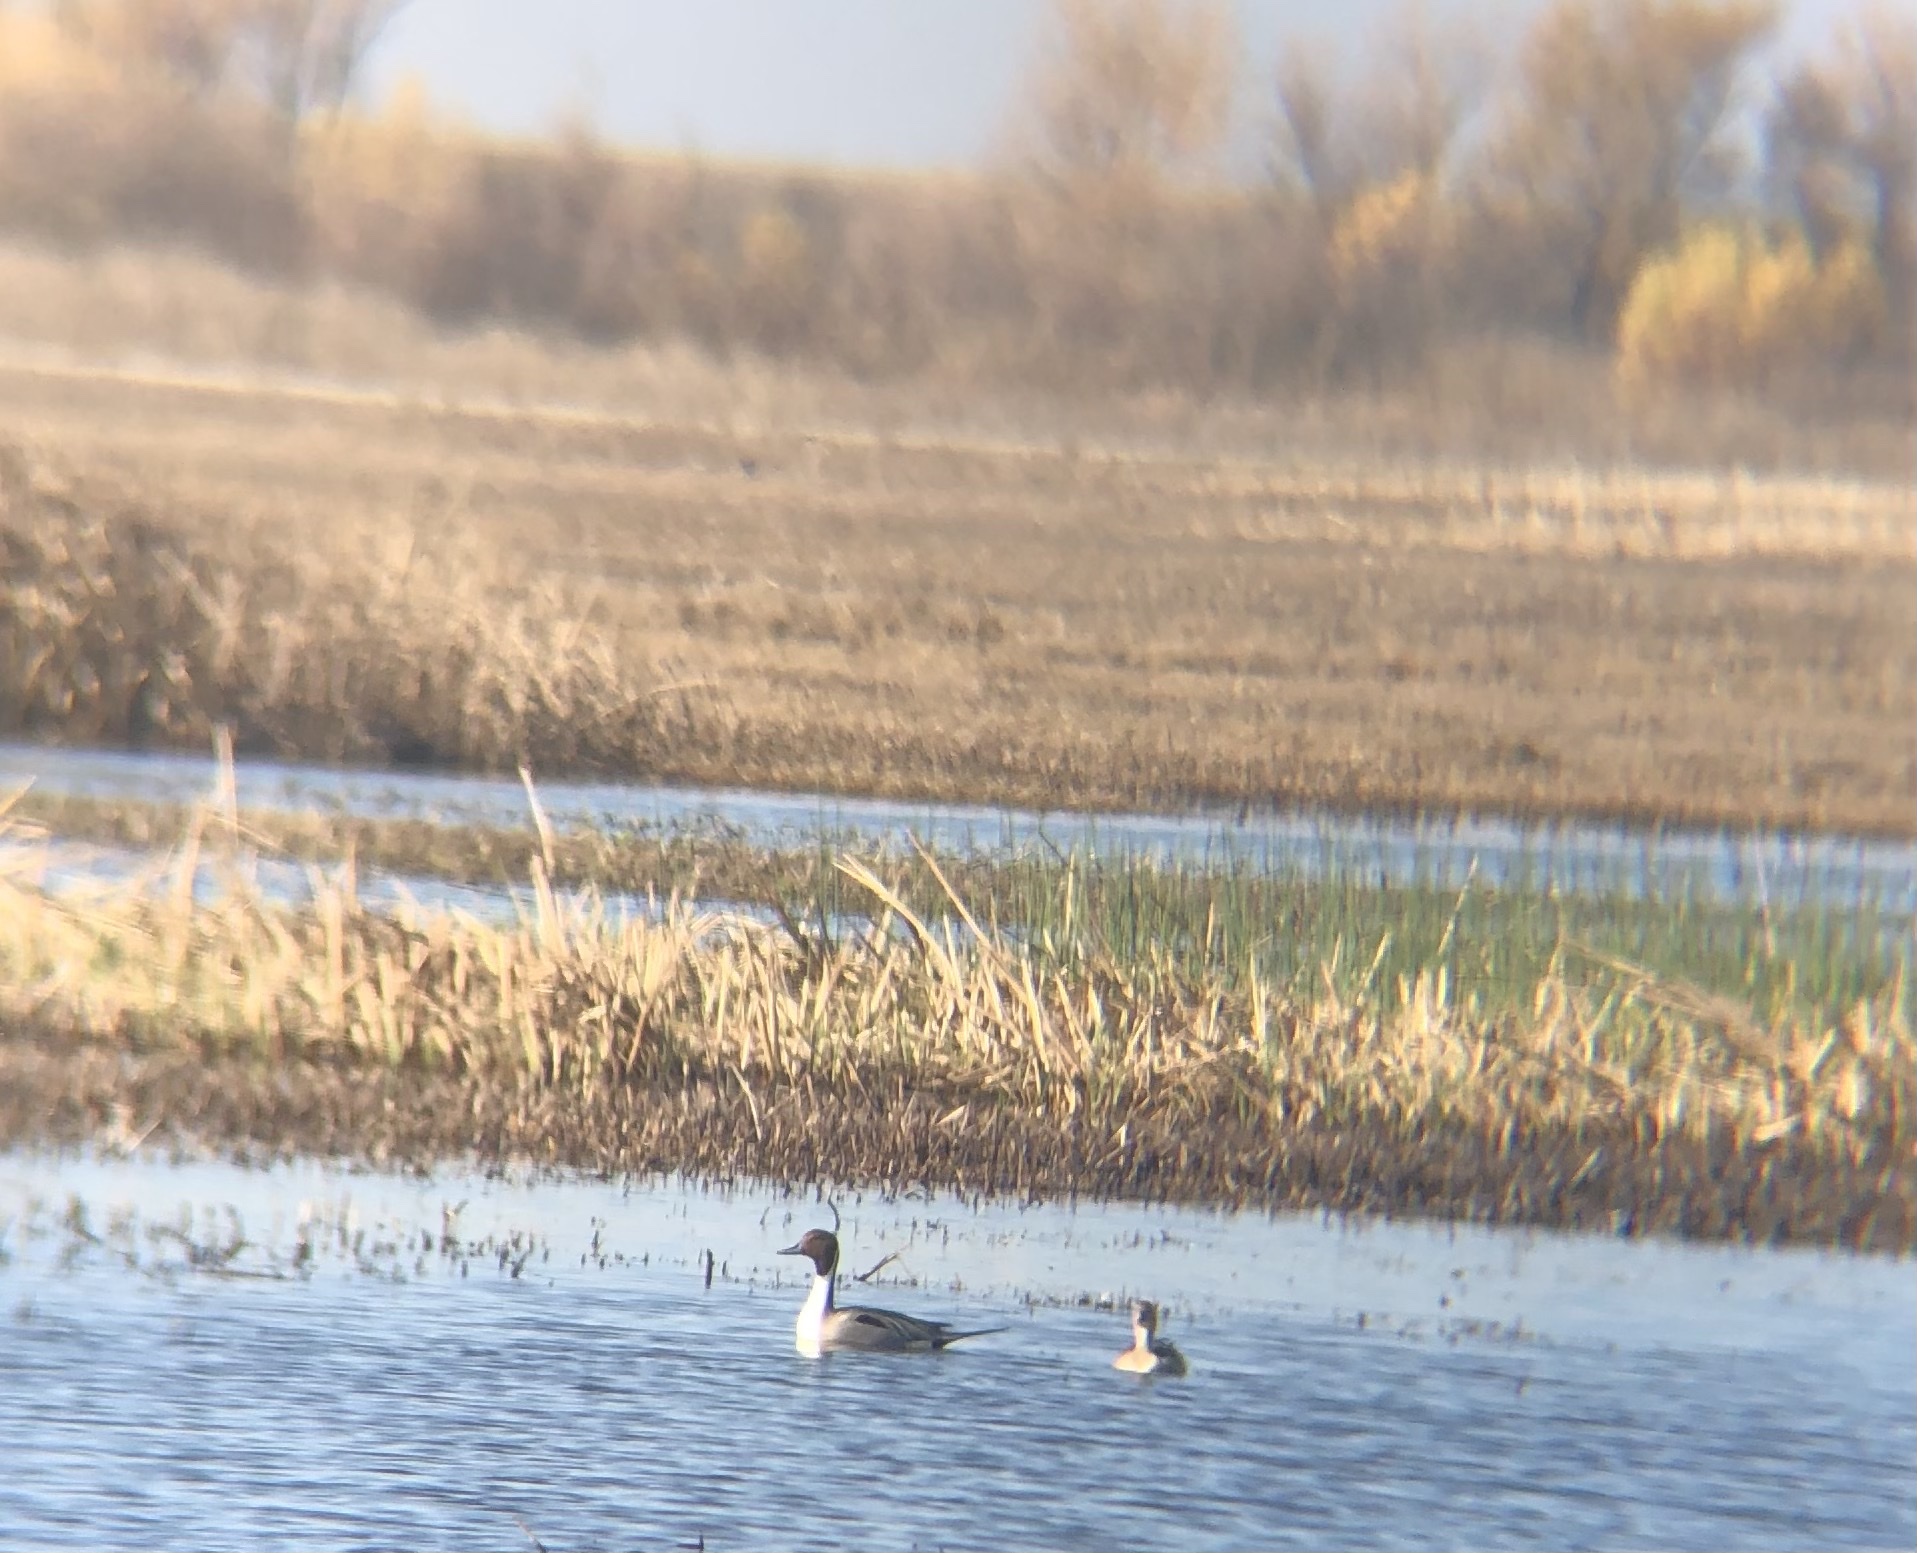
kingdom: Animalia
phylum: Chordata
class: Aves
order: Anseriformes
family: Anatidae
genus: Anas
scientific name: Anas acuta
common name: Northern pintail
